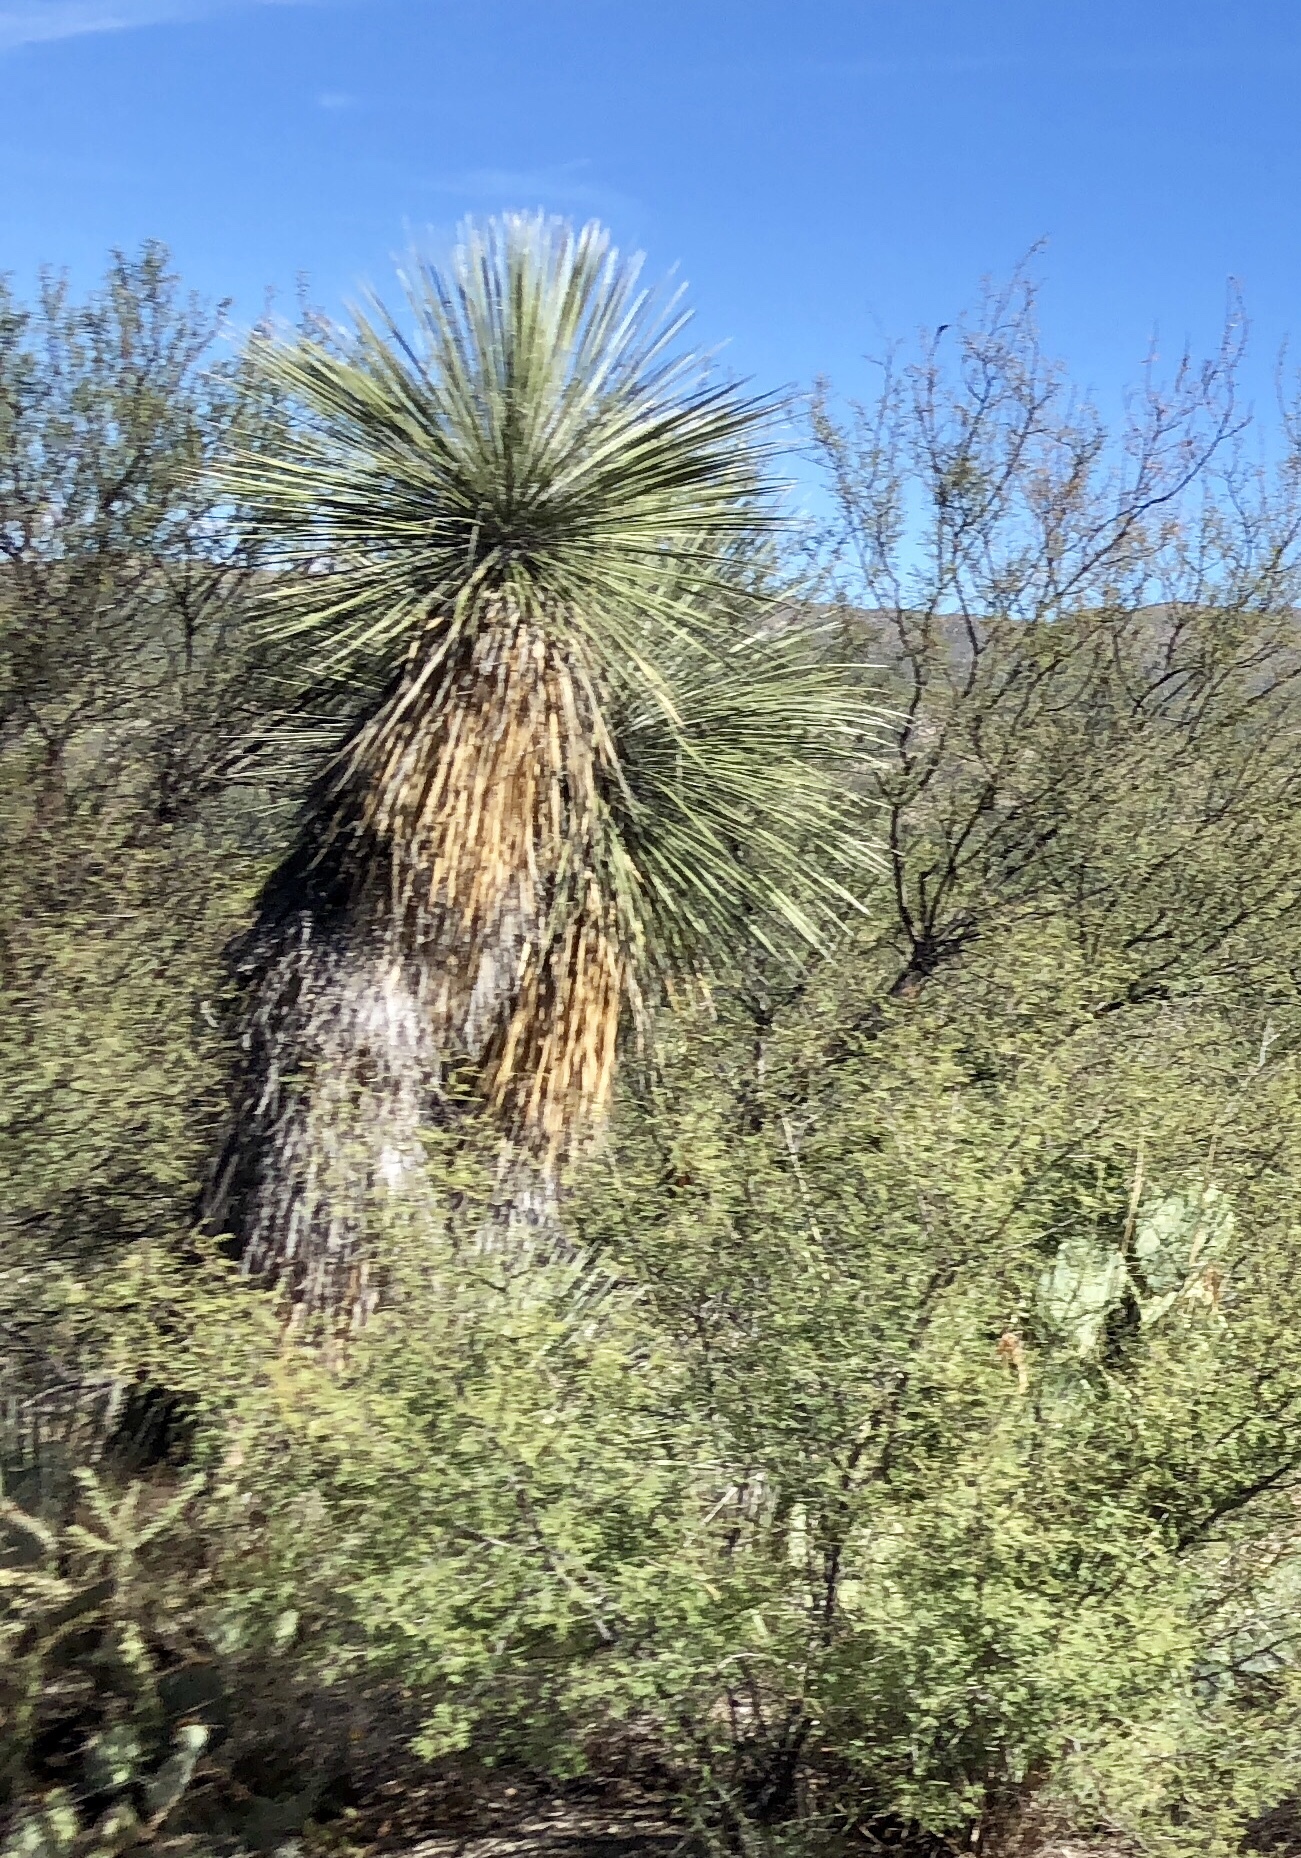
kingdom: Plantae
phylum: Tracheophyta
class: Liliopsida
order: Asparagales
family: Asparagaceae
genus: Yucca
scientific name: Yucca elata
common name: Palmella
